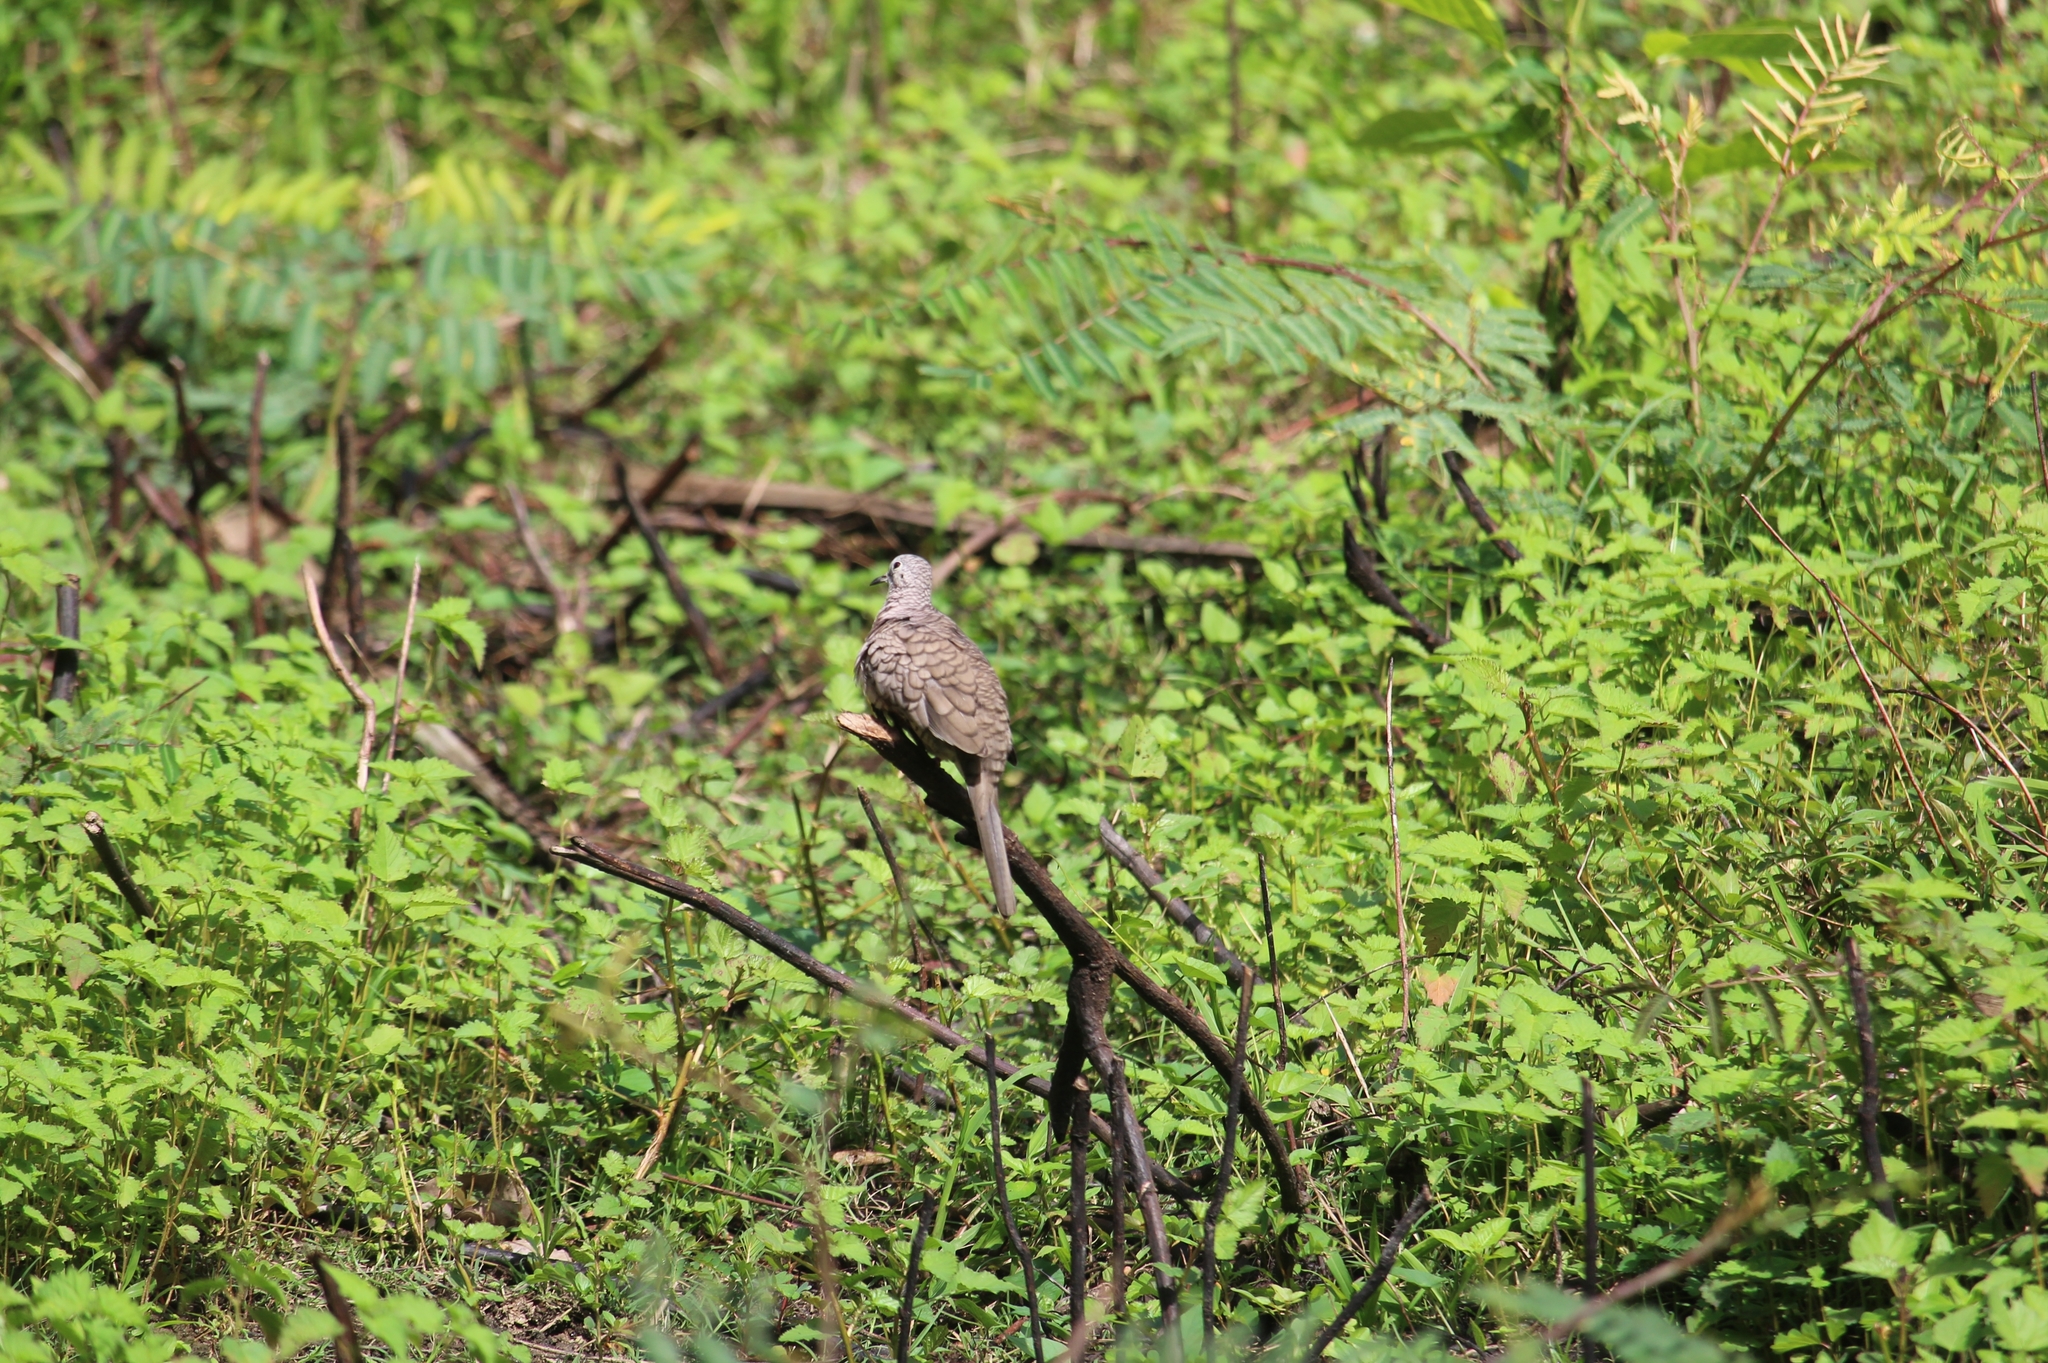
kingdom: Animalia
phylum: Chordata
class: Aves
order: Columbiformes
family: Columbidae
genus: Columbina
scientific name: Columbina inca
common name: Inca dove
